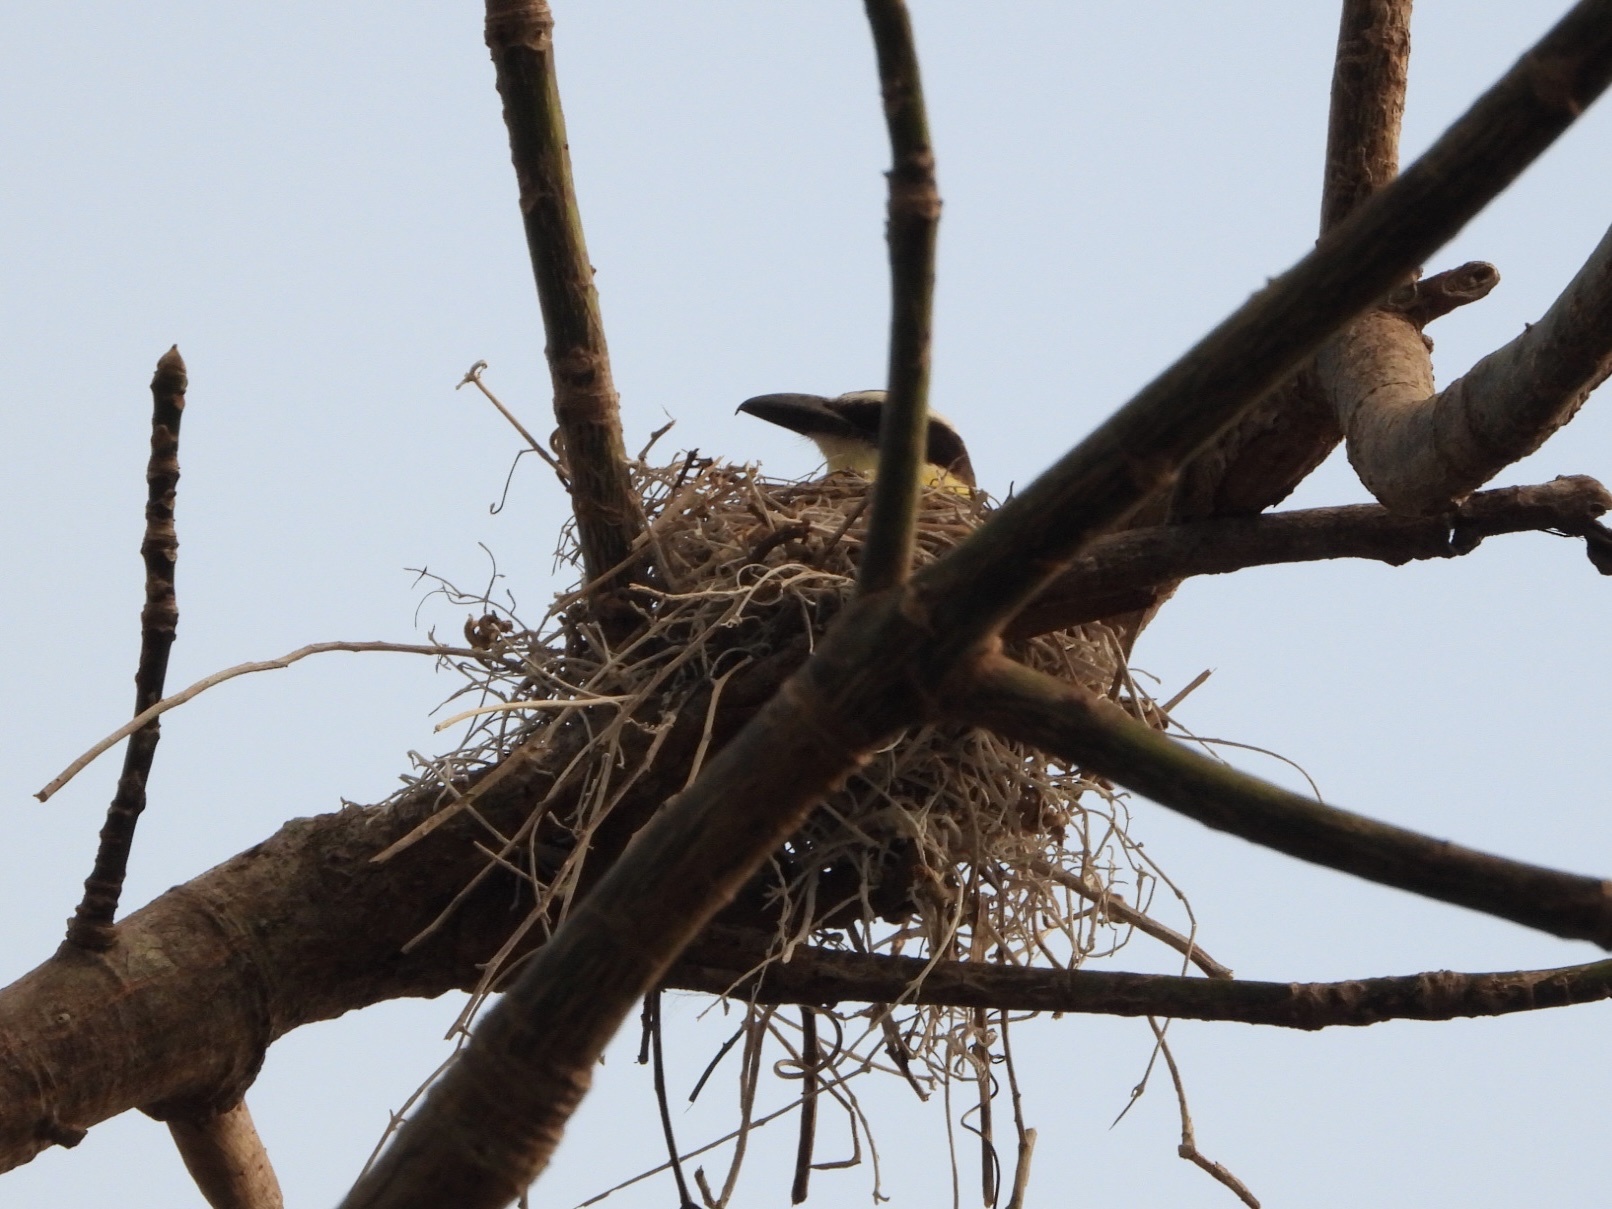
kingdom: Animalia
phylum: Chordata
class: Aves
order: Passeriformes
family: Tyrannidae
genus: Megarynchus
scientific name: Megarynchus pitangua
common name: Boat-billed flycatcher
